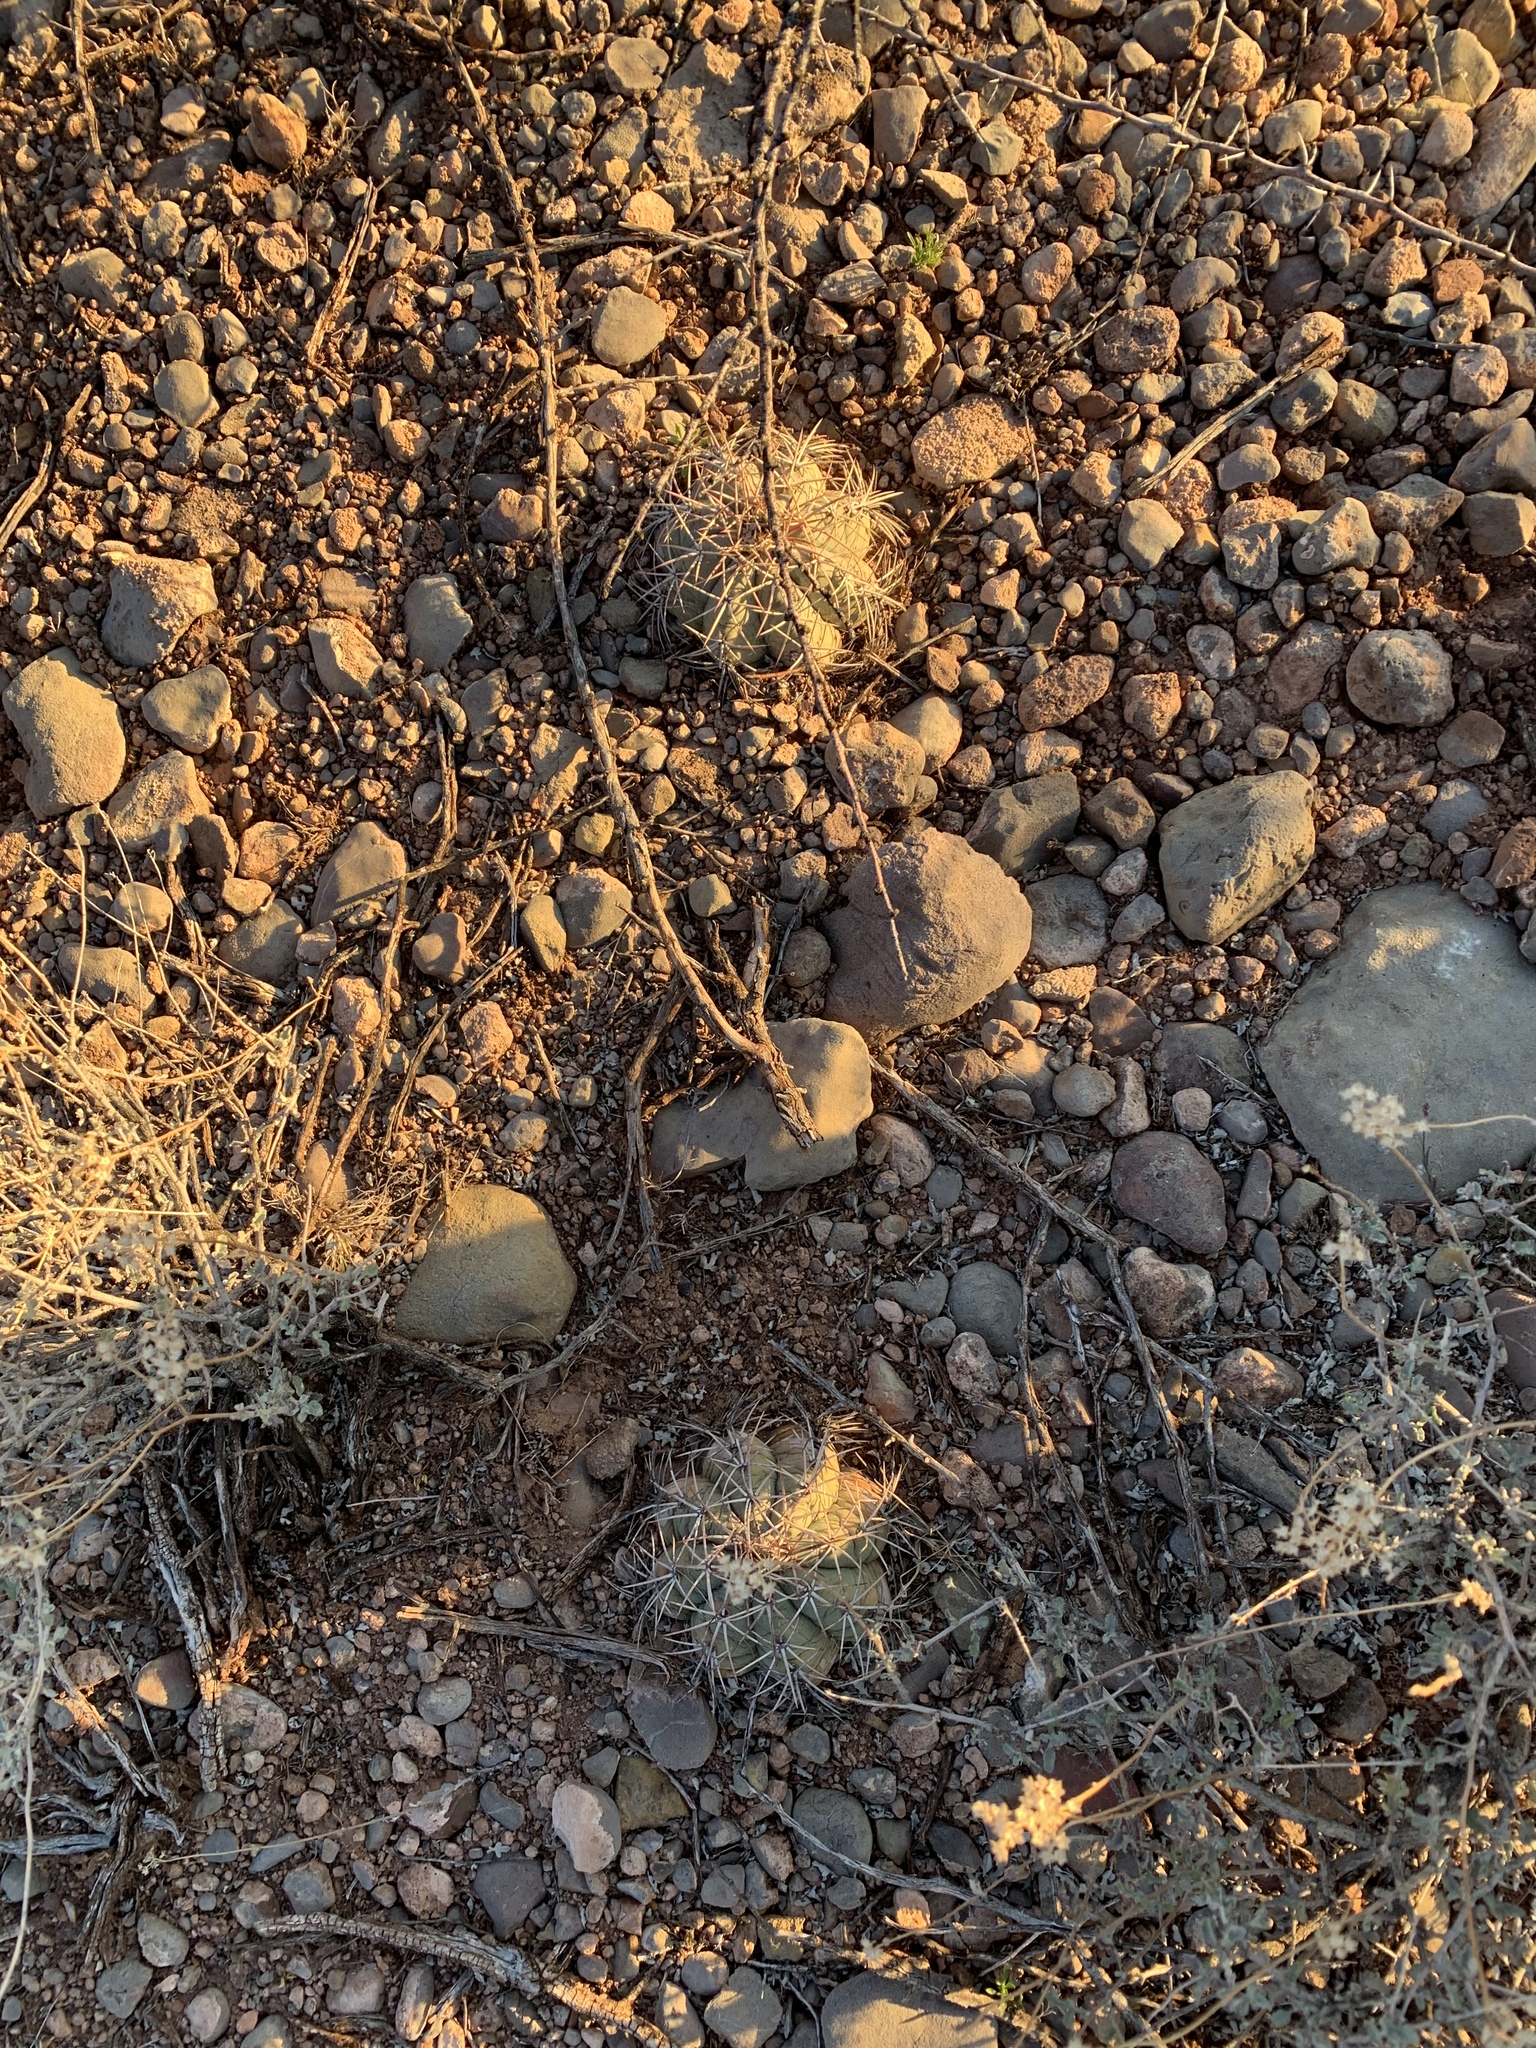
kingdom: Plantae
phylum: Tracheophyta
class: Magnoliopsida
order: Caryophyllales
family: Cactaceae
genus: Echinocactus
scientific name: Echinocactus horizonthalonius
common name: Devilshead
